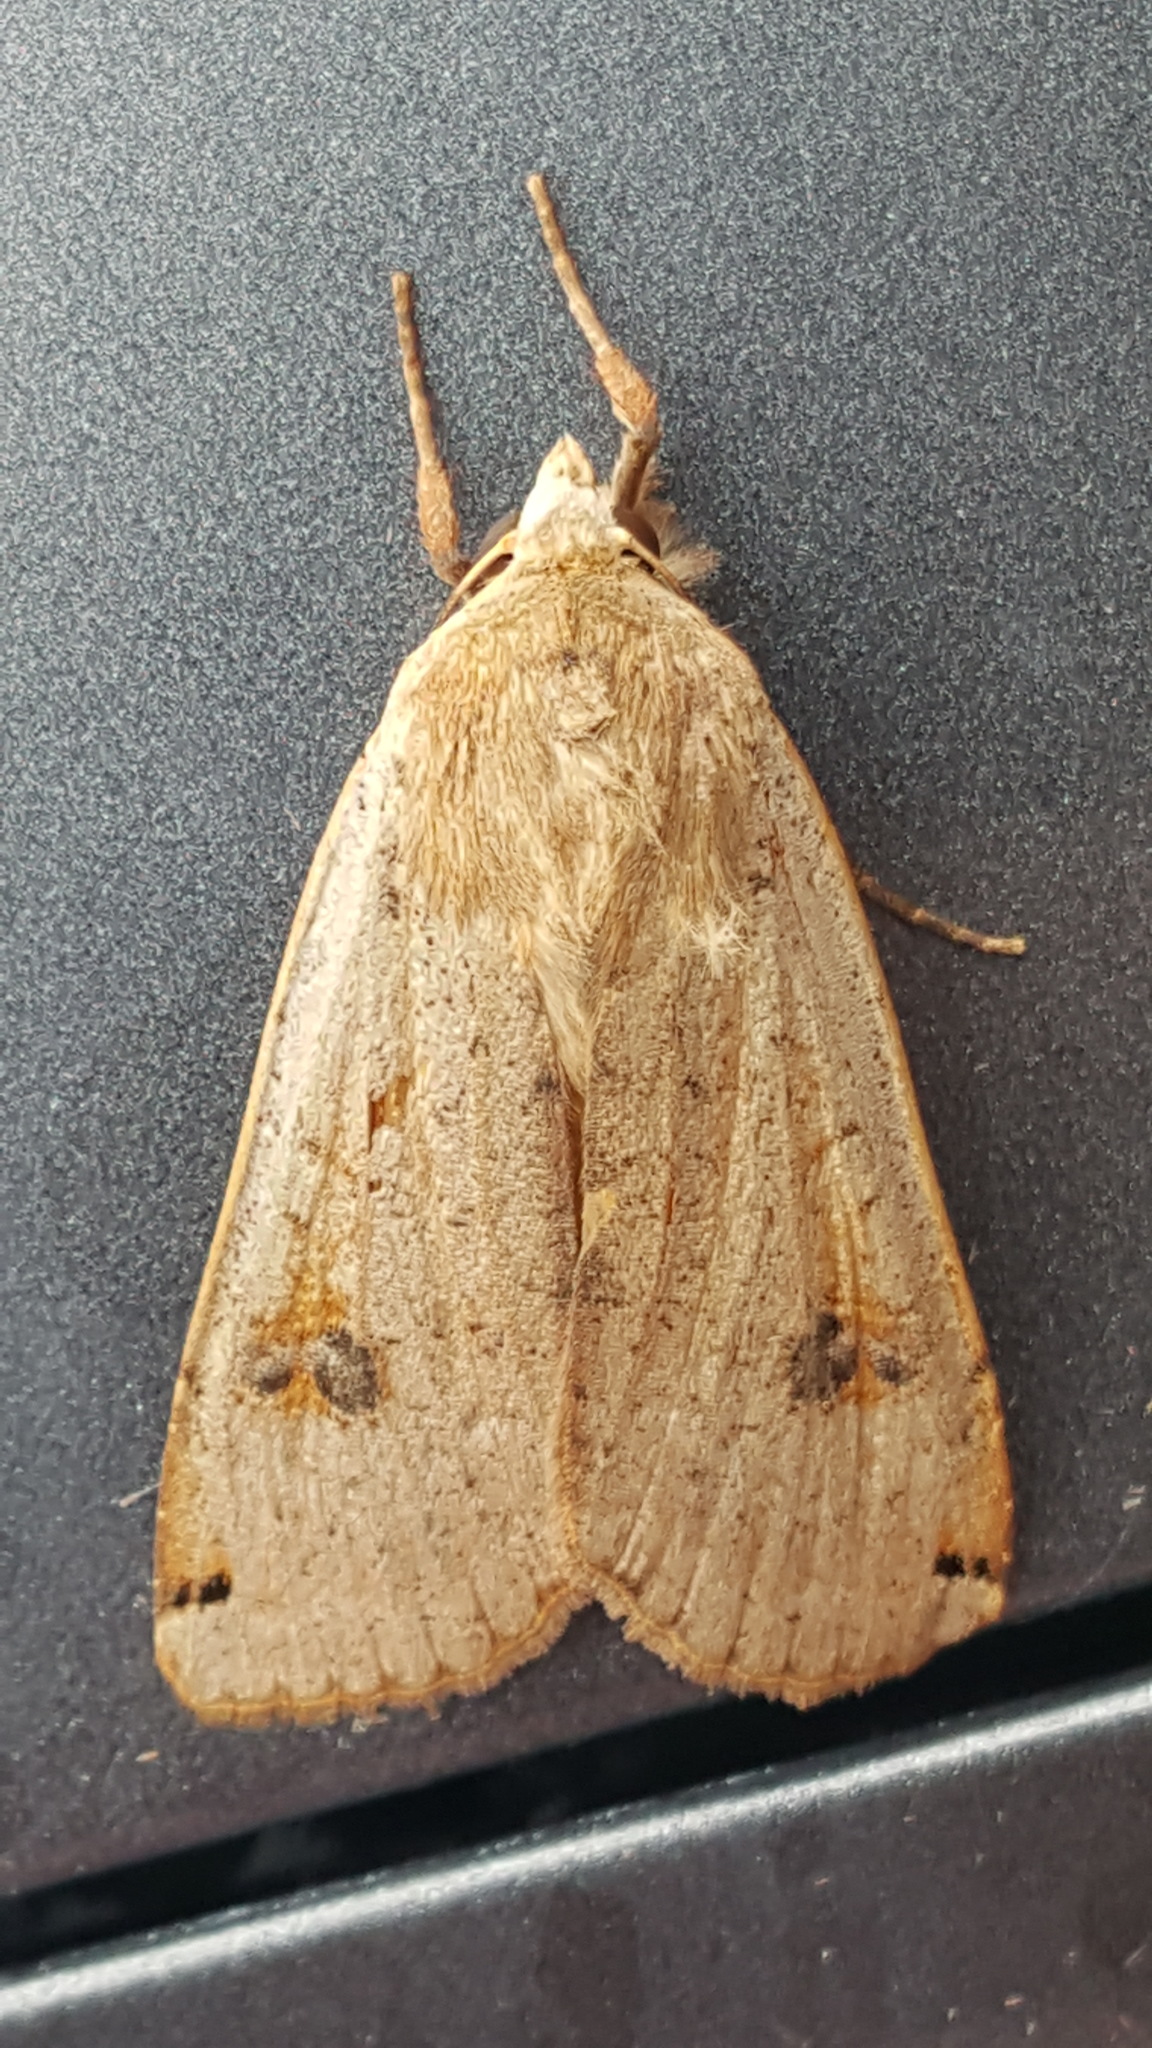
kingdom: Animalia
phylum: Arthropoda
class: Insecta
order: Lepidoptera
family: Noctuidae
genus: Noctua
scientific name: Noctua pronuba
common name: Large yellow underwing
